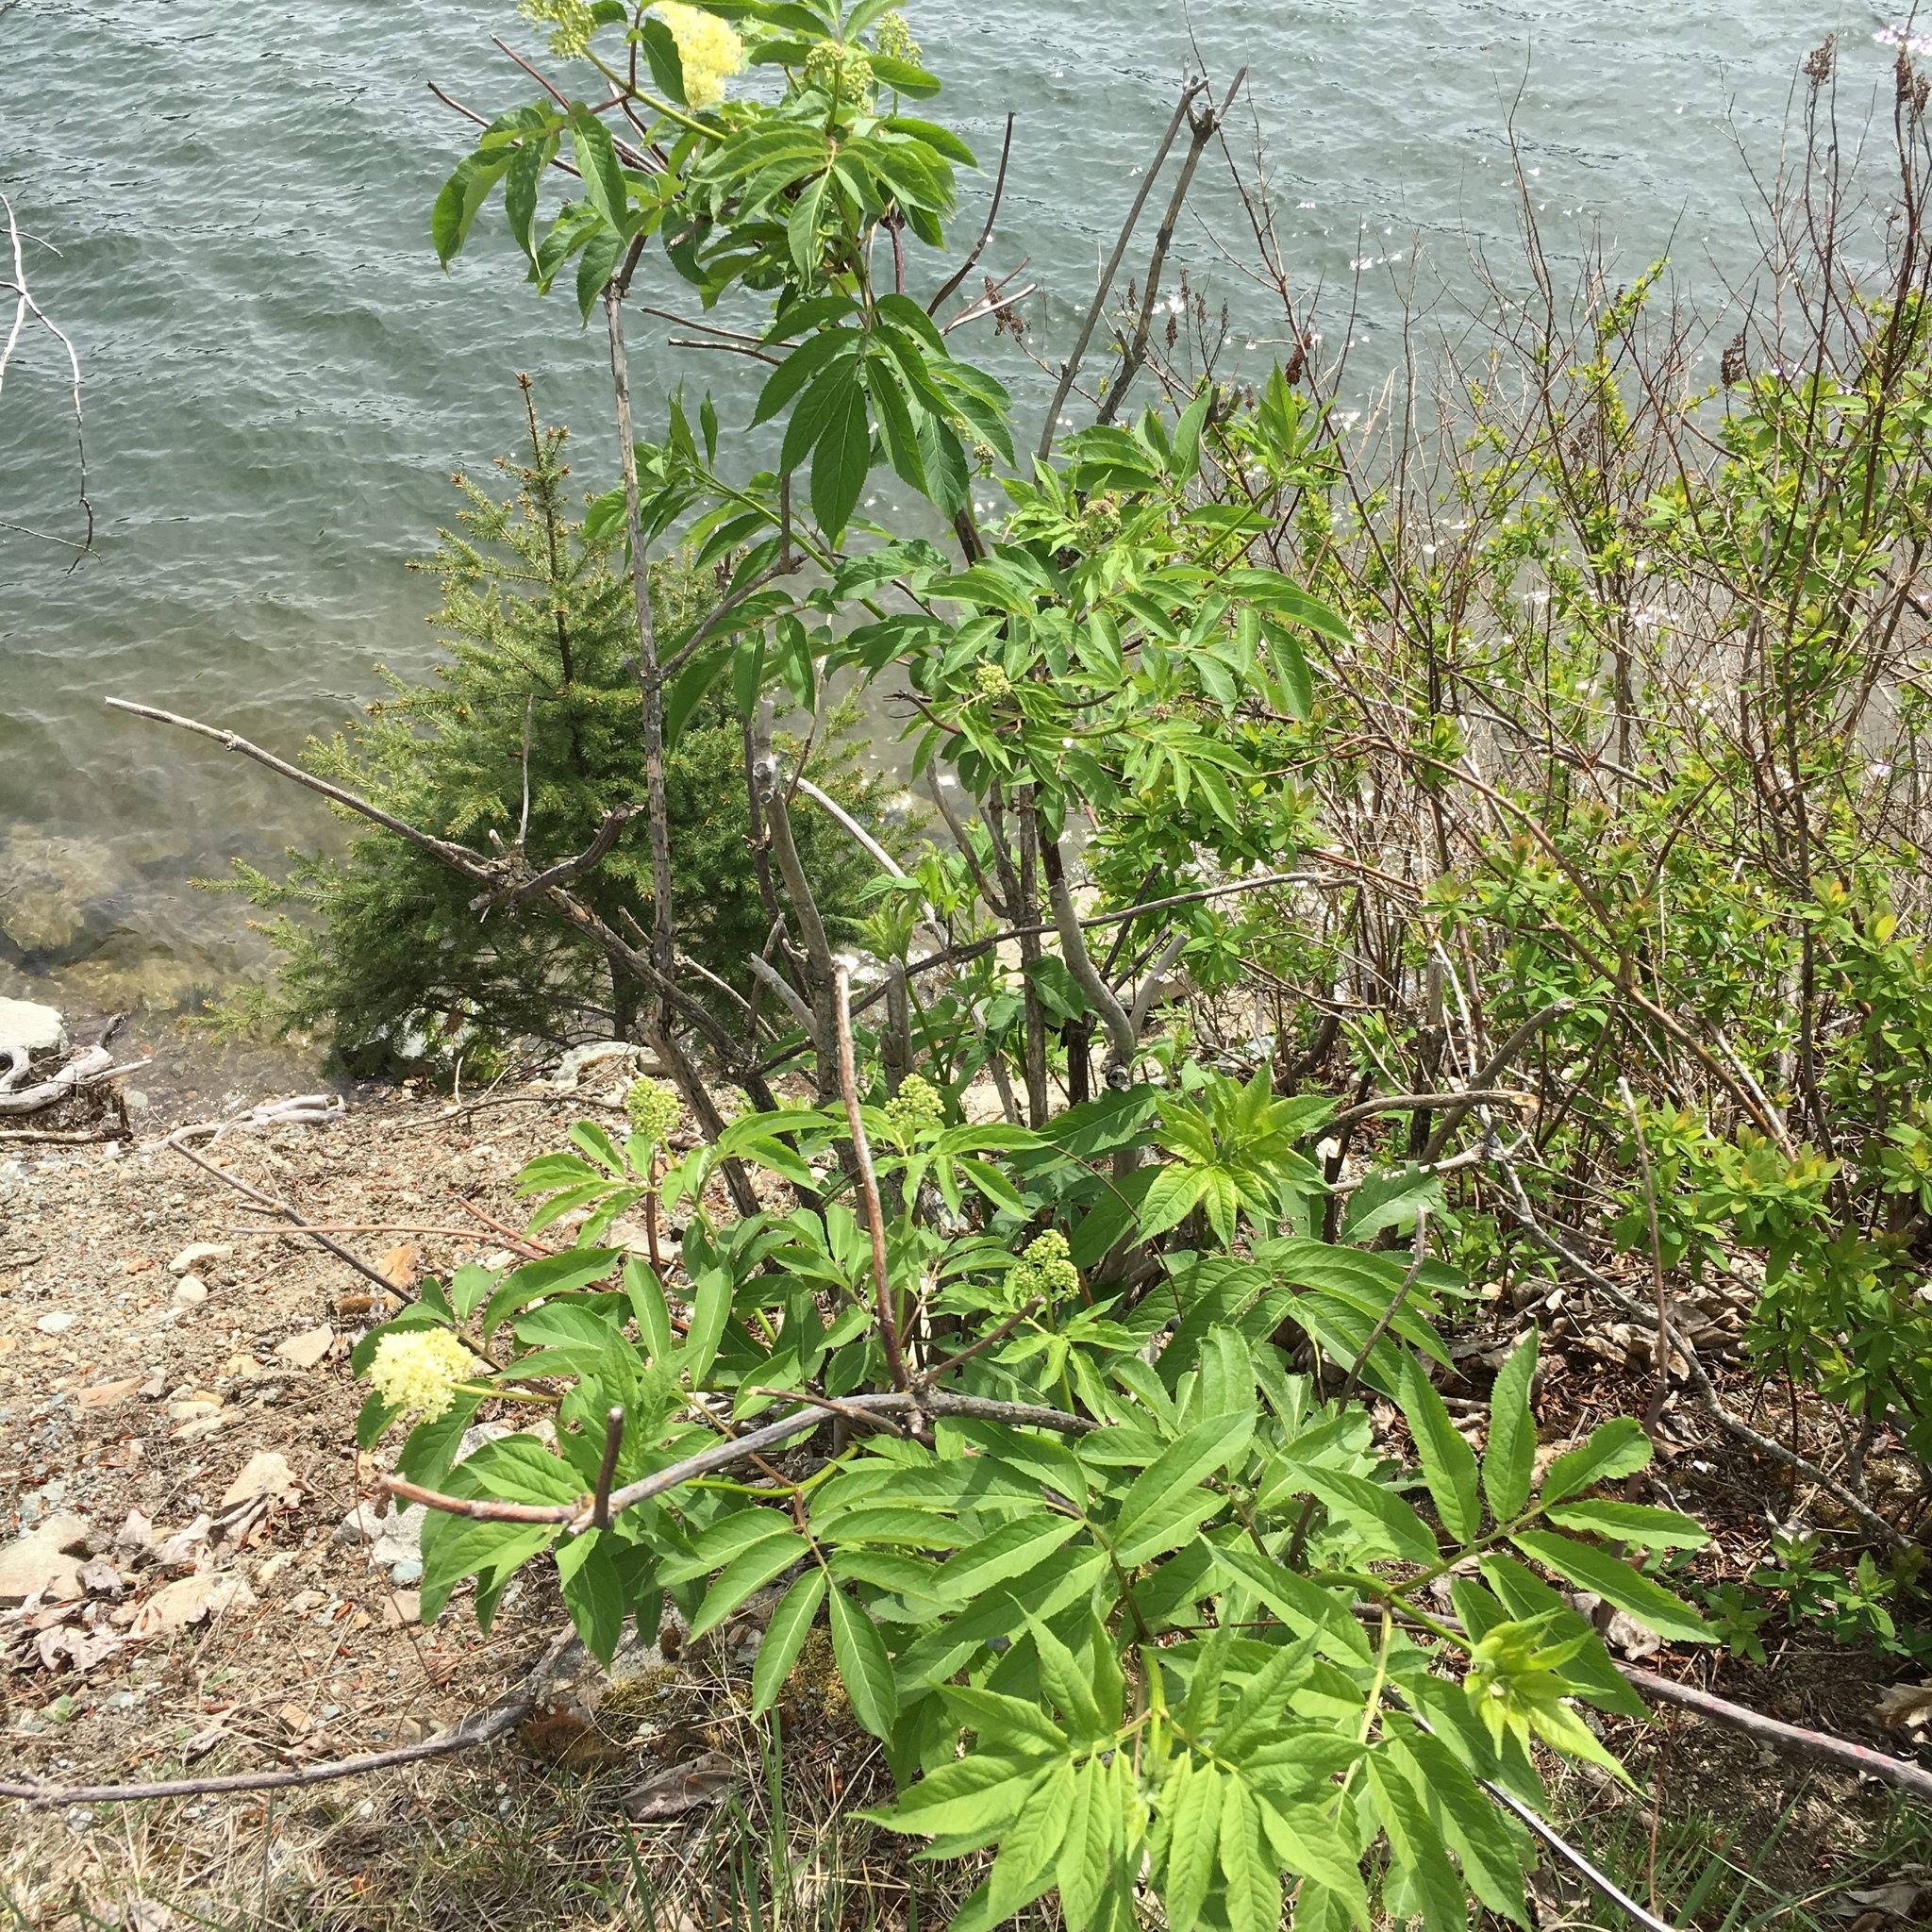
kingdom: Plantae
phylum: Tracheophyta
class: Magnoliopsida
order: Dipsacales
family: Viburnaceae
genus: Sambucus
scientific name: Sambucus racemosa
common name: Red-berried elder
